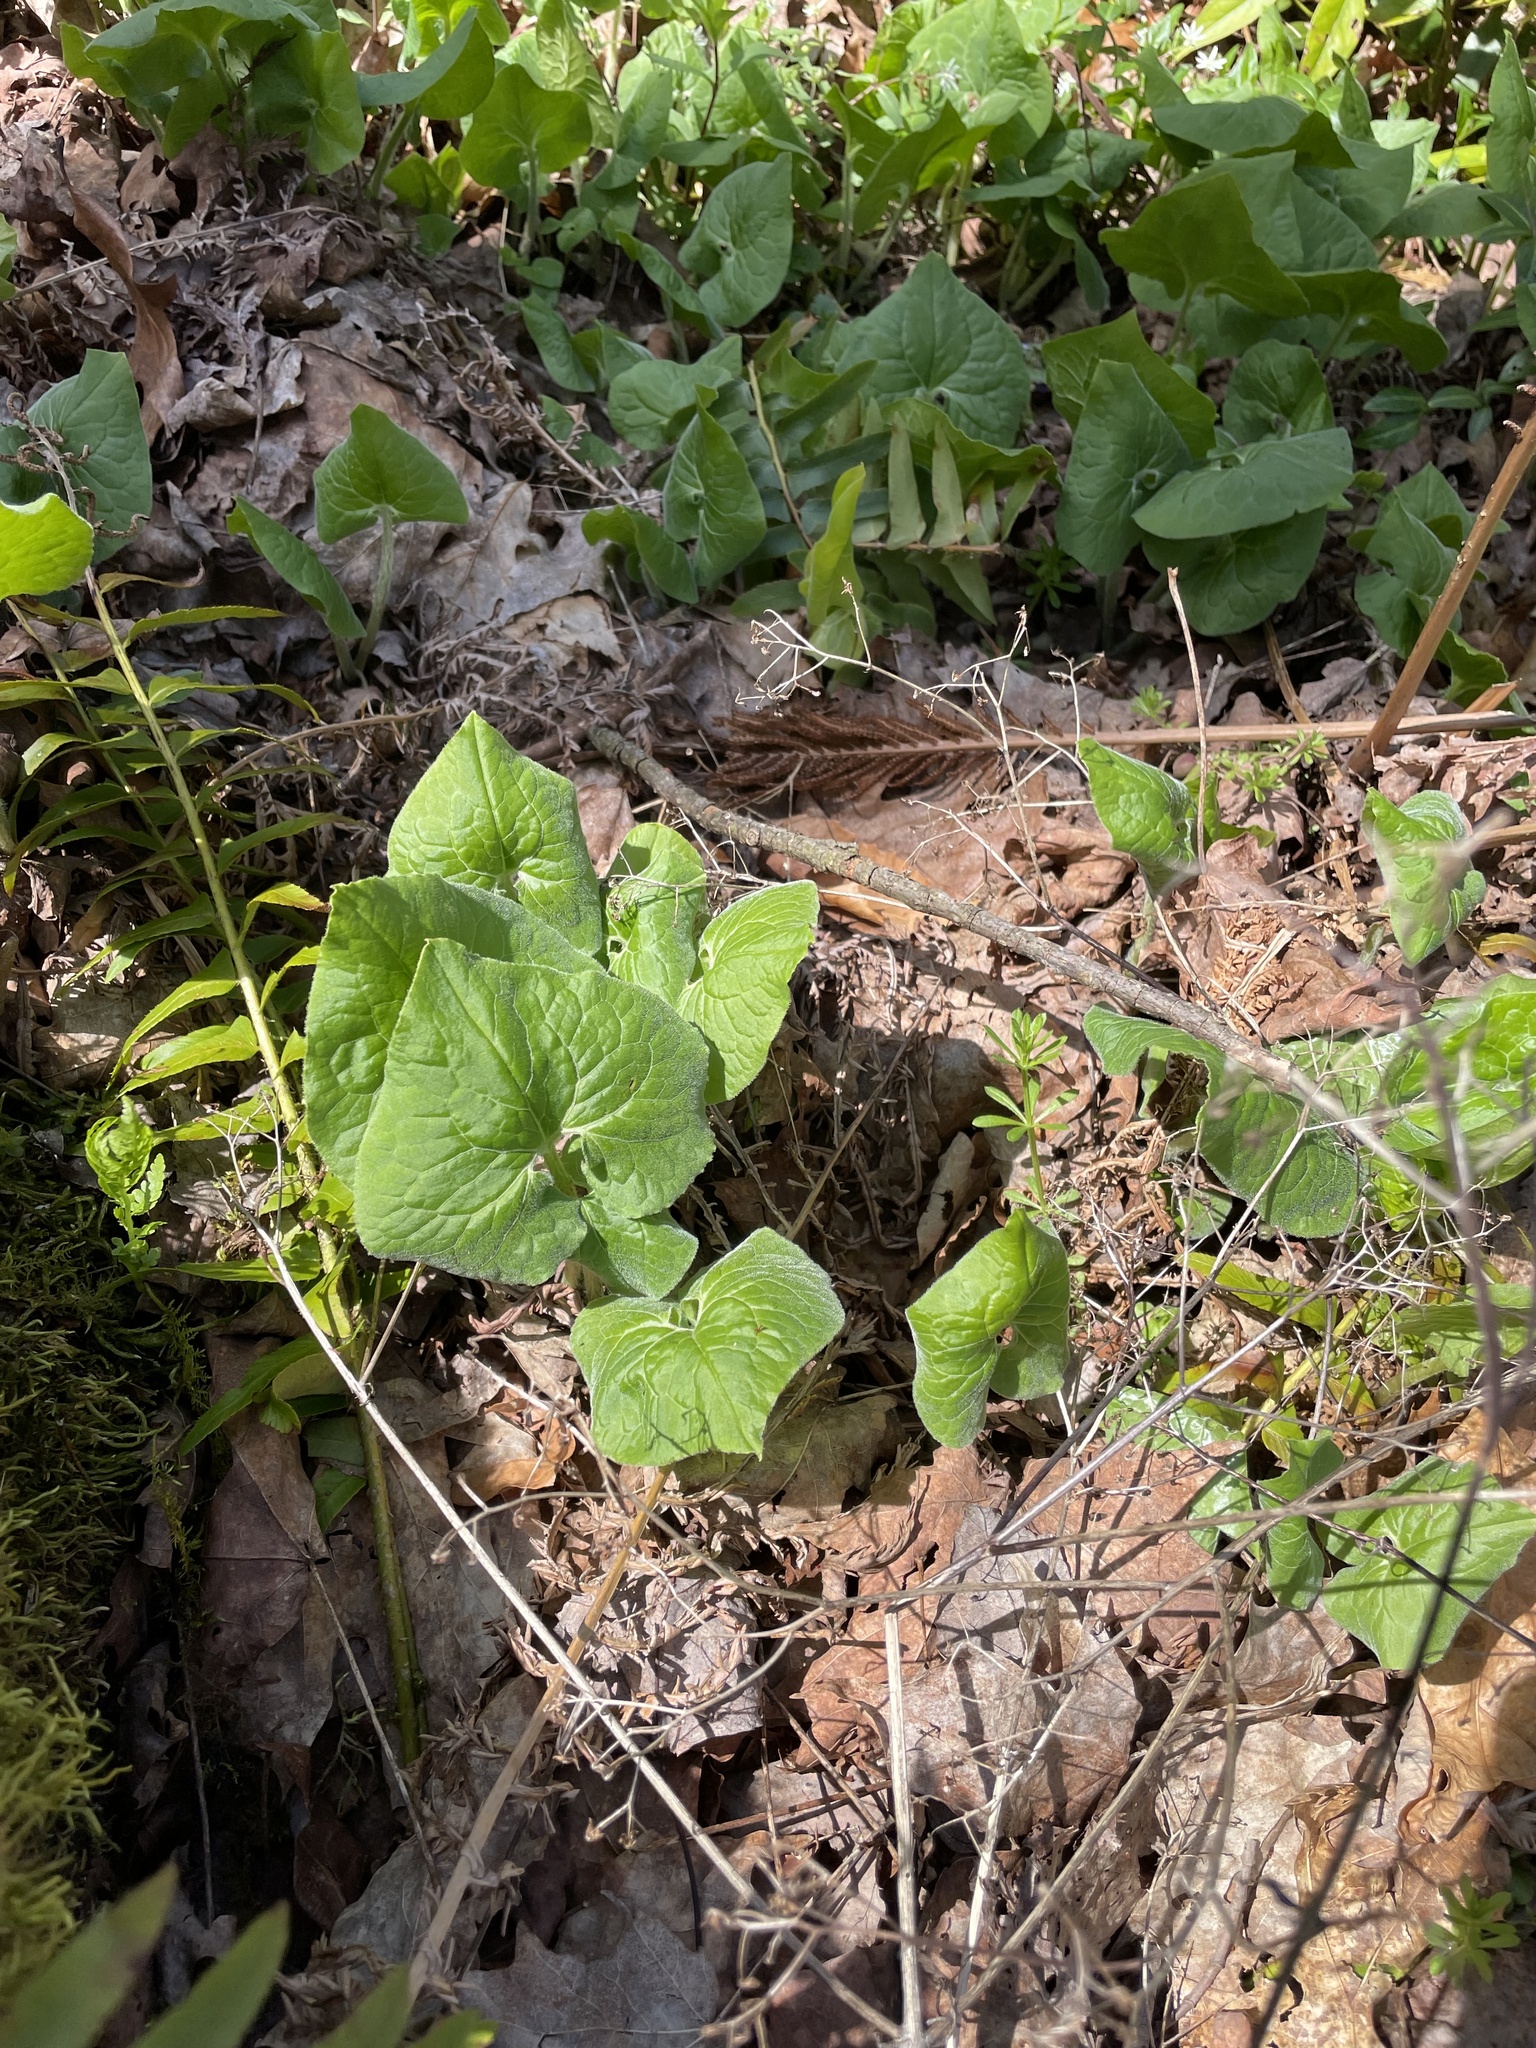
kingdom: Plantae
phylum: Tracheophyta
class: Magnoliopsida
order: Piperales
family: Aristolochiaceae
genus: Asarum
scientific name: Asarum canadense
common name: Wild ginger
